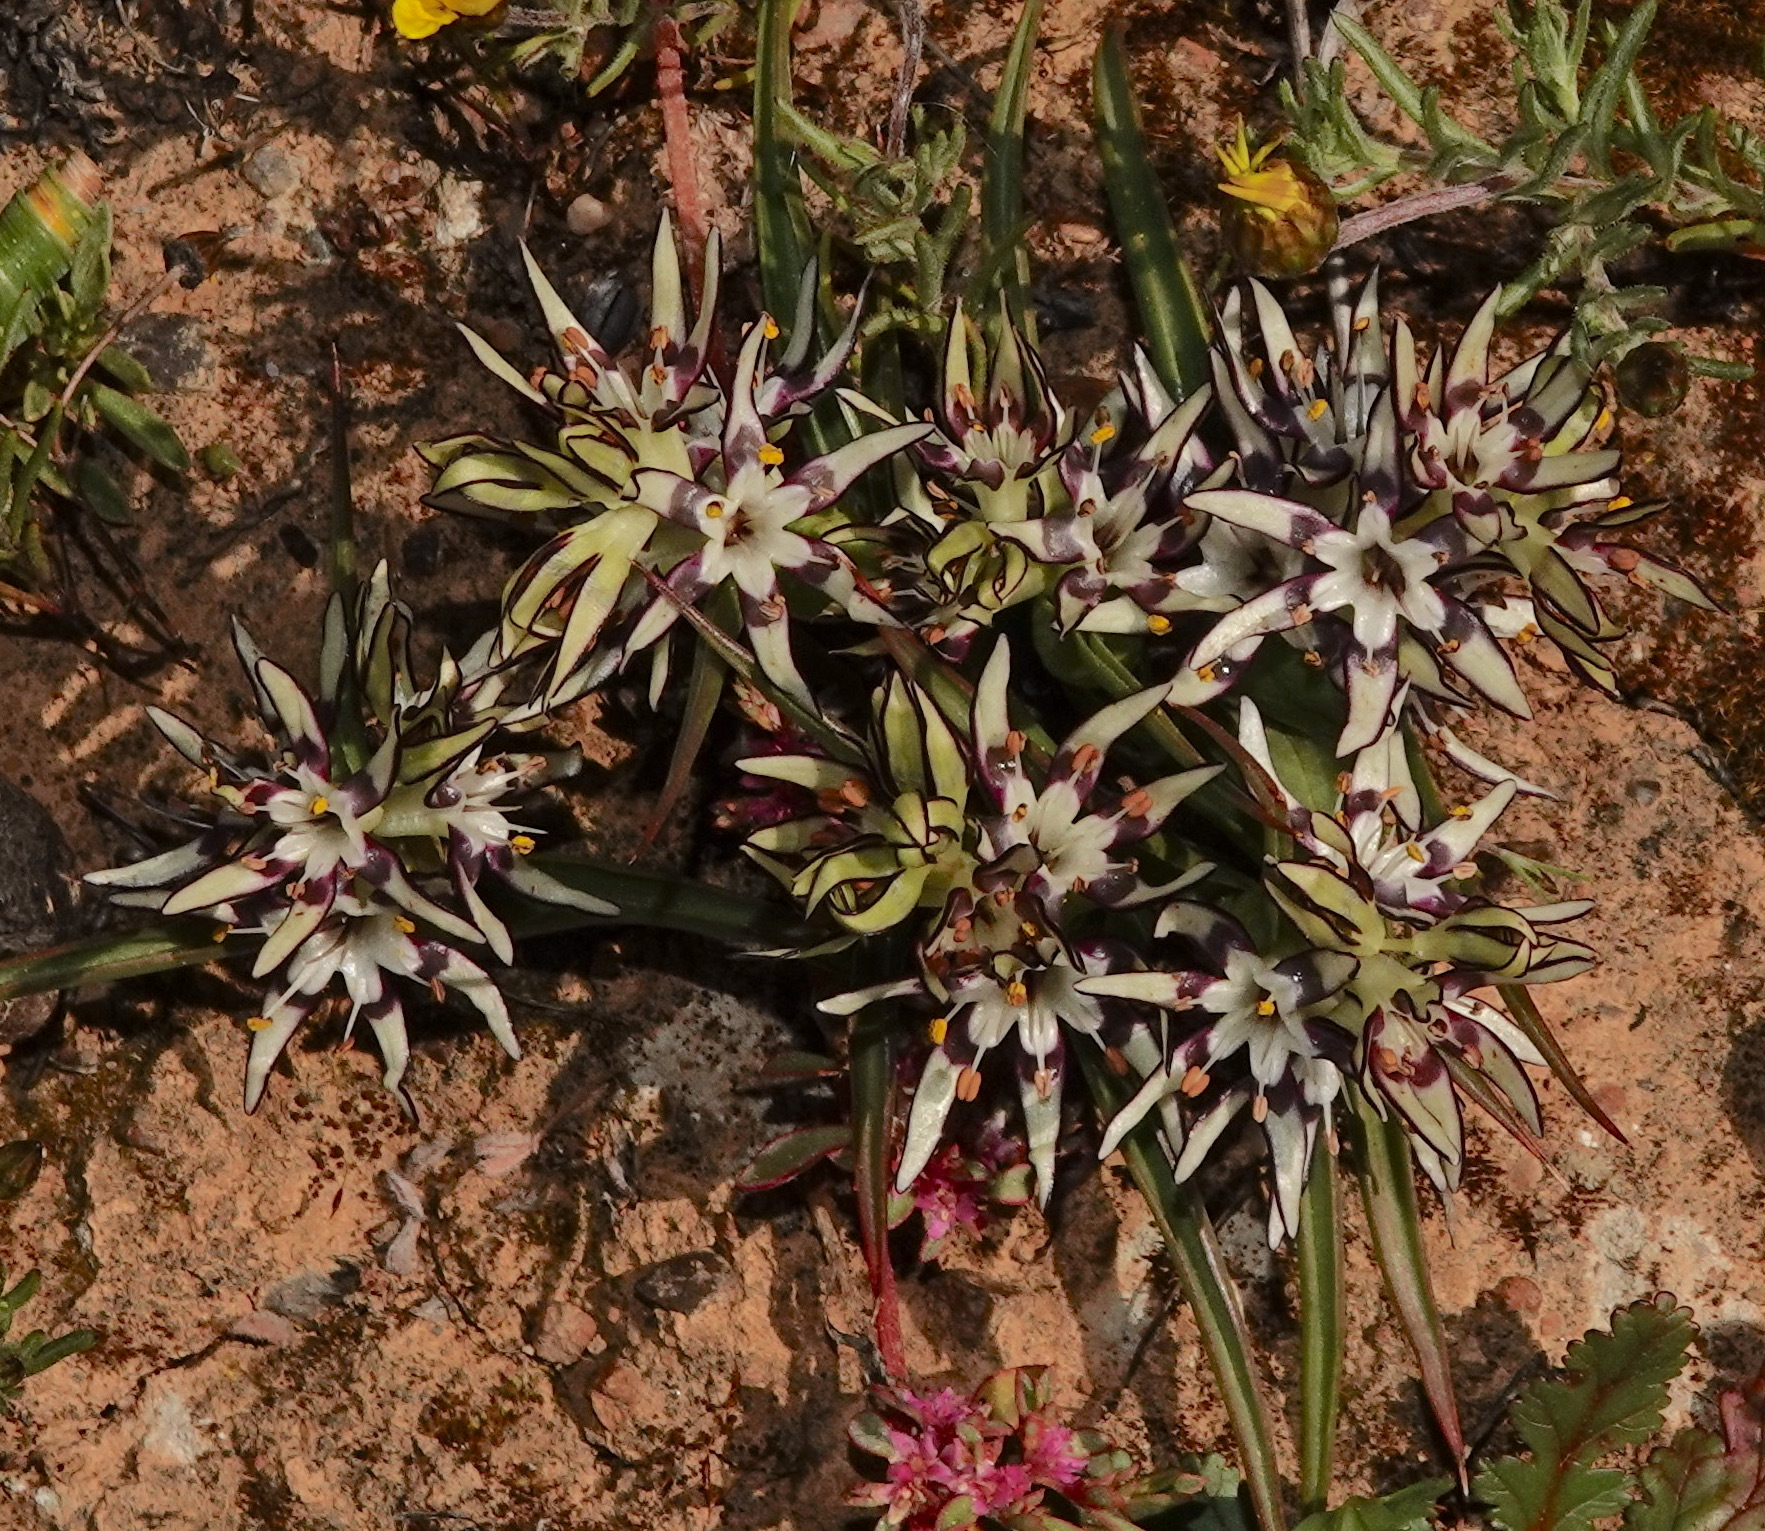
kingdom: Plantae
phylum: Tracheophyta
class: Liliopsida
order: Liliales
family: Colchicaceae
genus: Wurmbea
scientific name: Wurmbea variabilis
